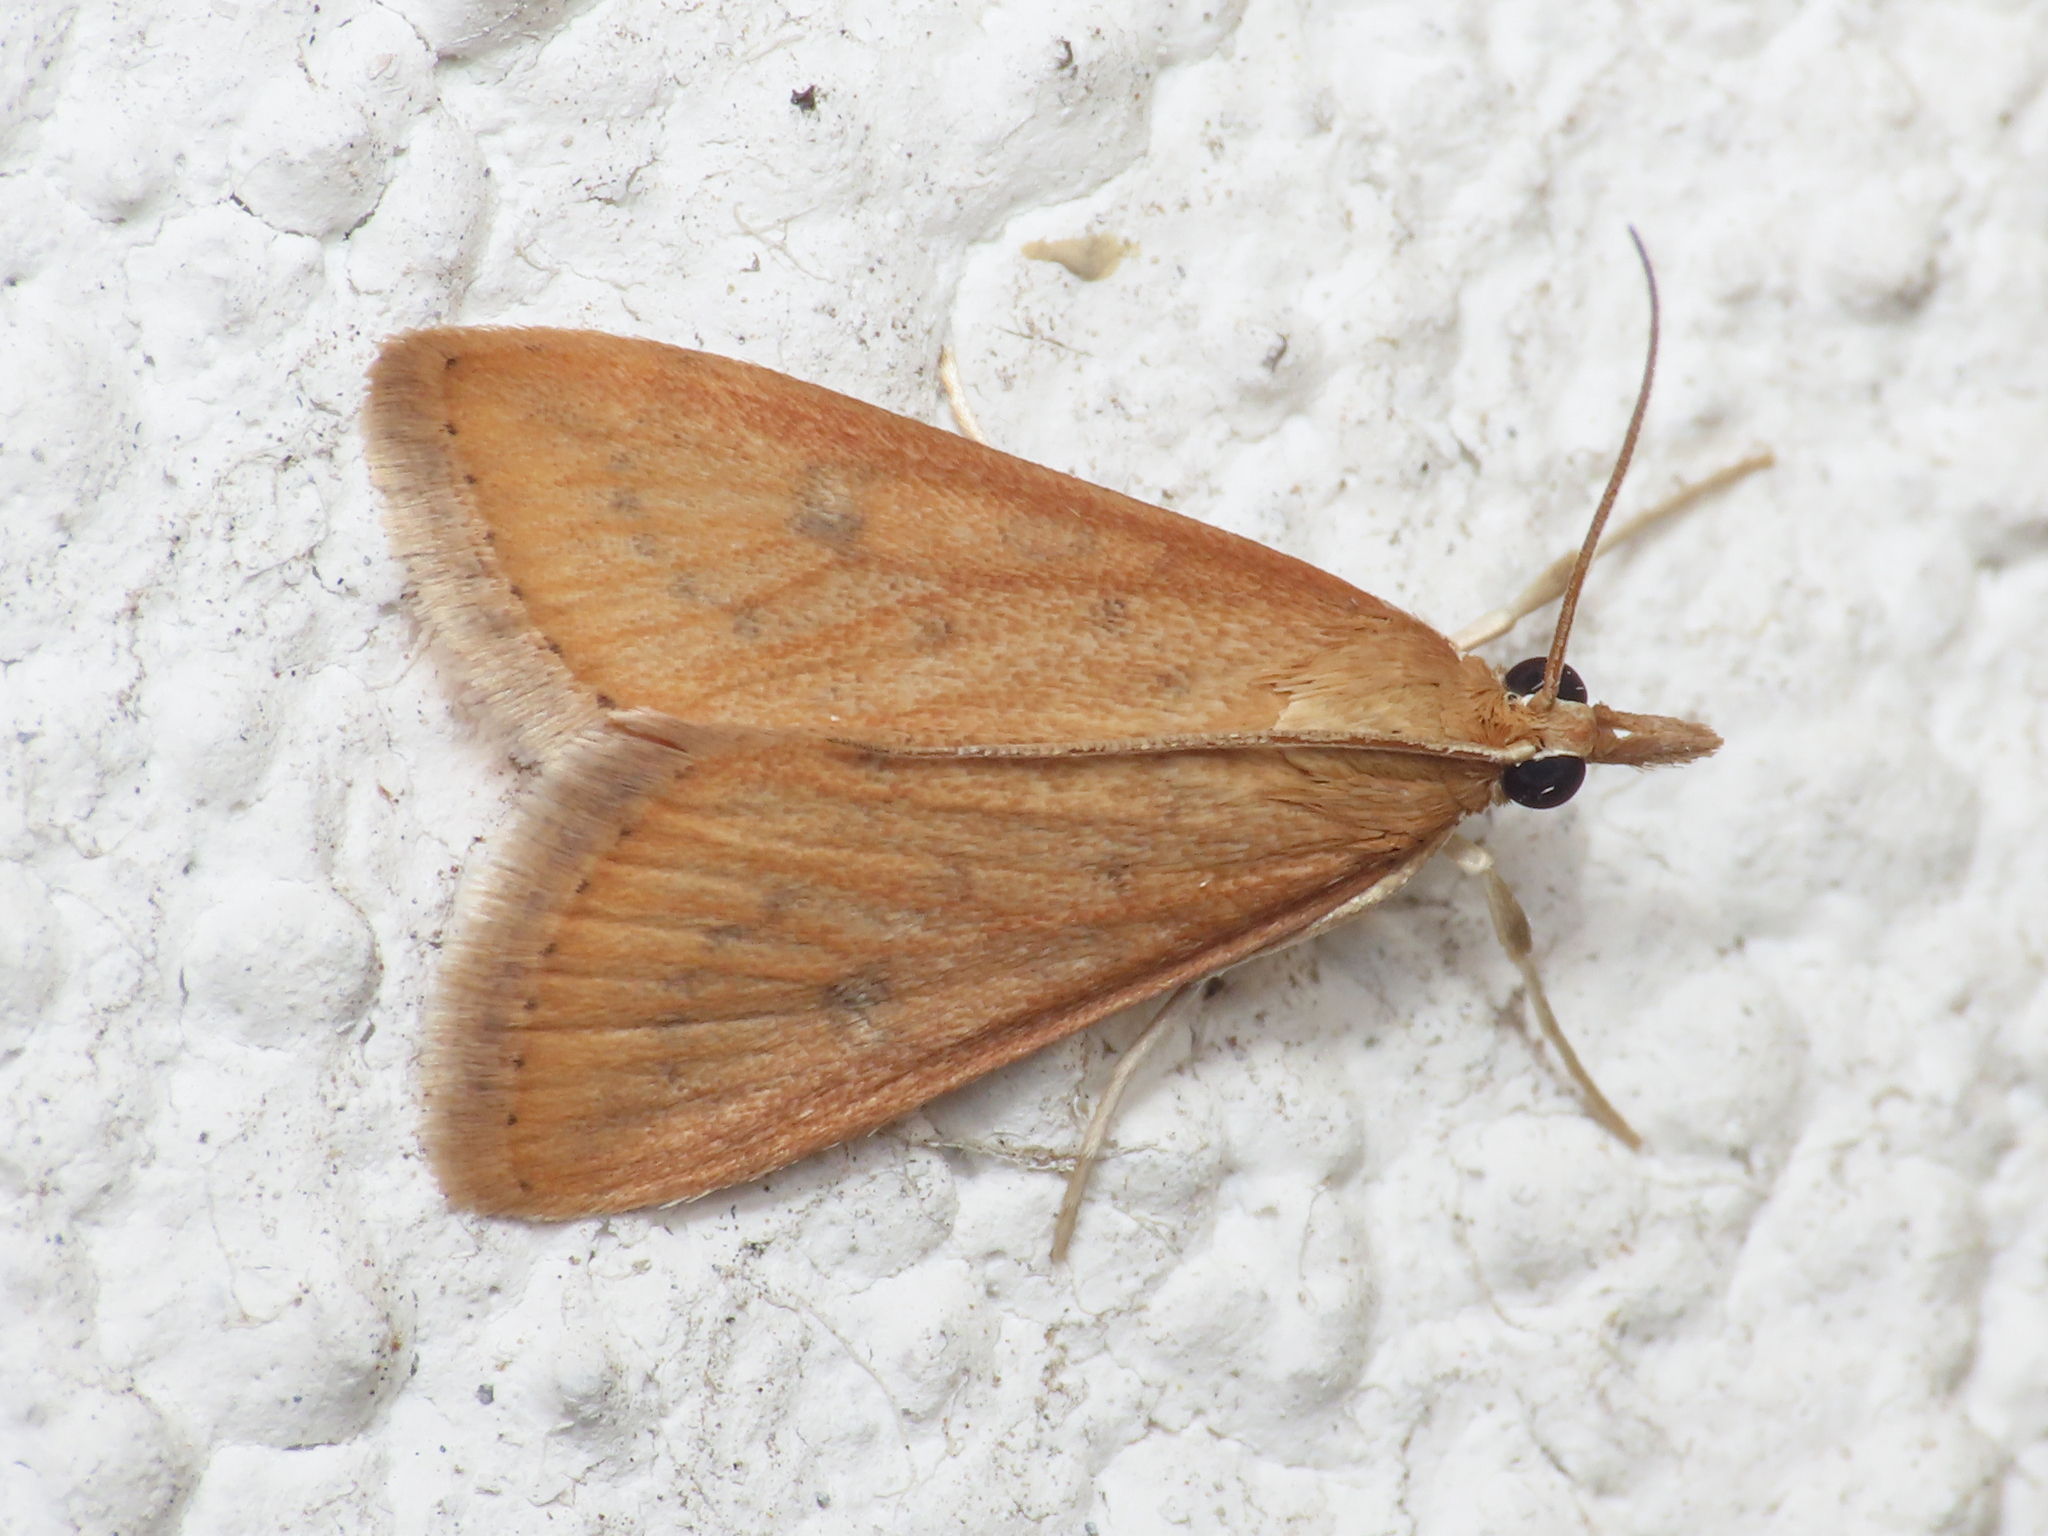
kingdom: Animalia
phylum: Arthropoda
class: Insecta
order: Lepidoptera
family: Crambidae
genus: Udea
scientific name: Udea ferrugalis
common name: Rusty dot
